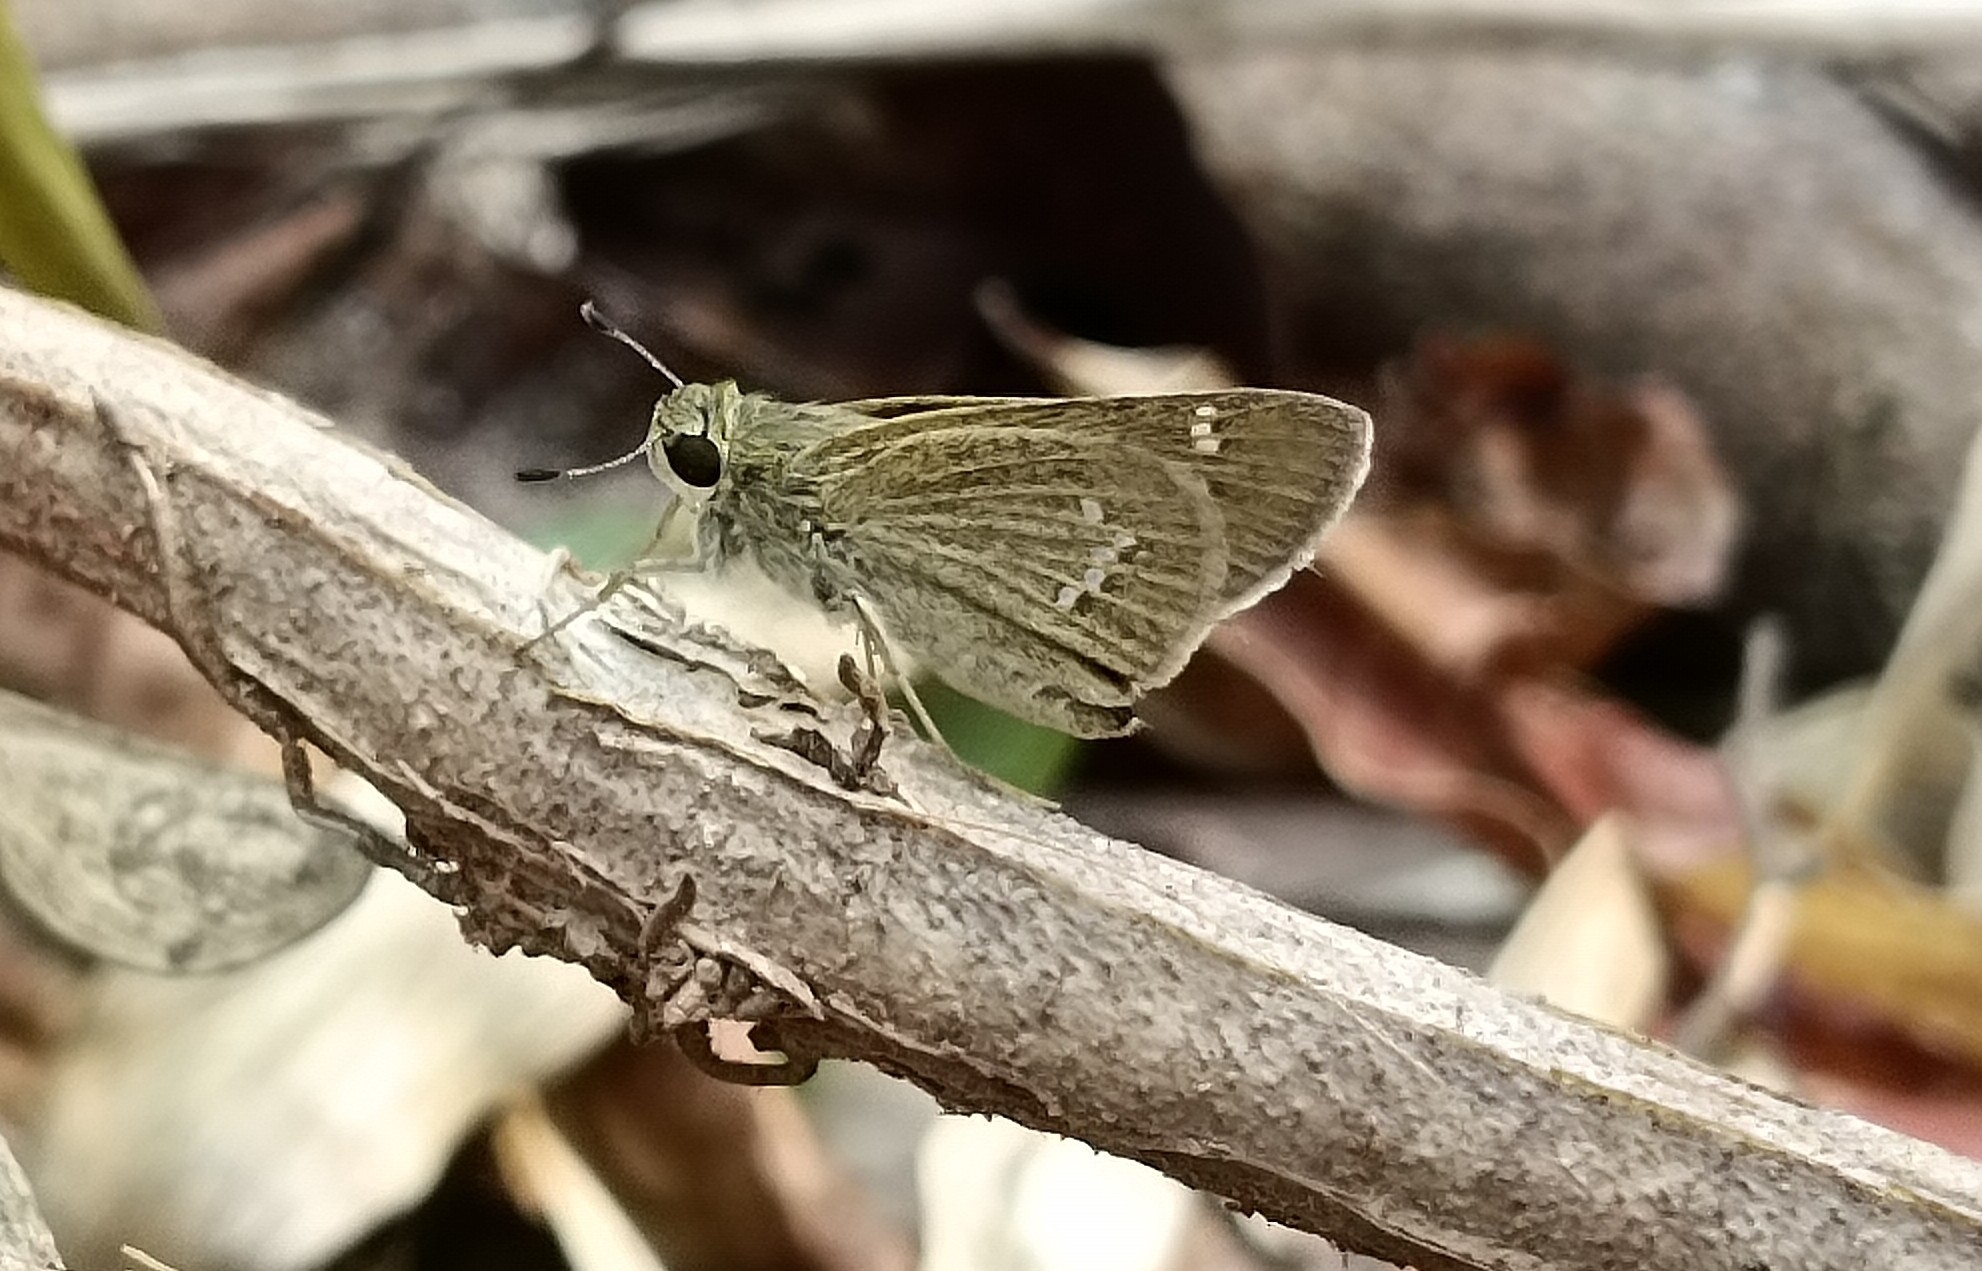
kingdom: Animalia
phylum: Arthropoda
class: Insecta
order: Lepidoptera
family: Hesperiidae
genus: Parnara
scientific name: Parnara naso
